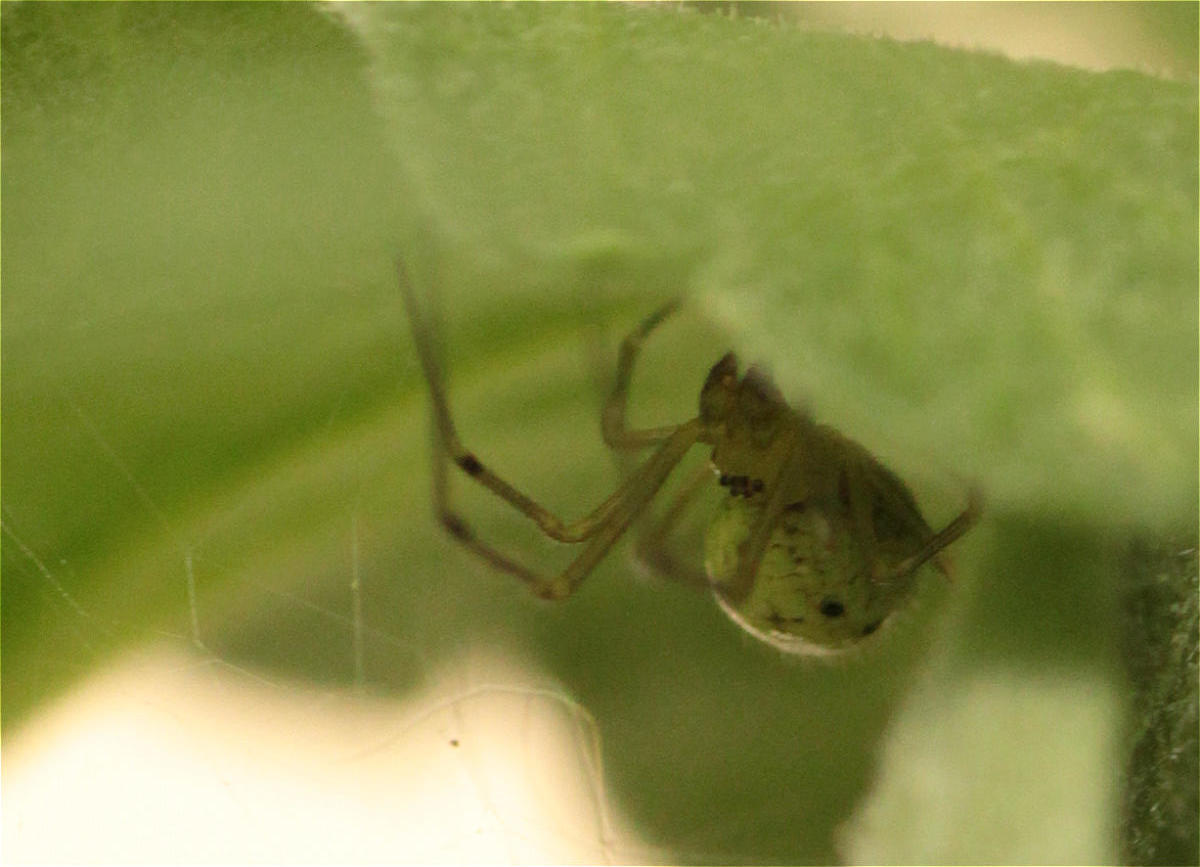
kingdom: Animalia
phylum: Arthropoda
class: Arachnida
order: Araneae
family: Theridiidae
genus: Enoplognatha
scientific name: Enoplognatha
